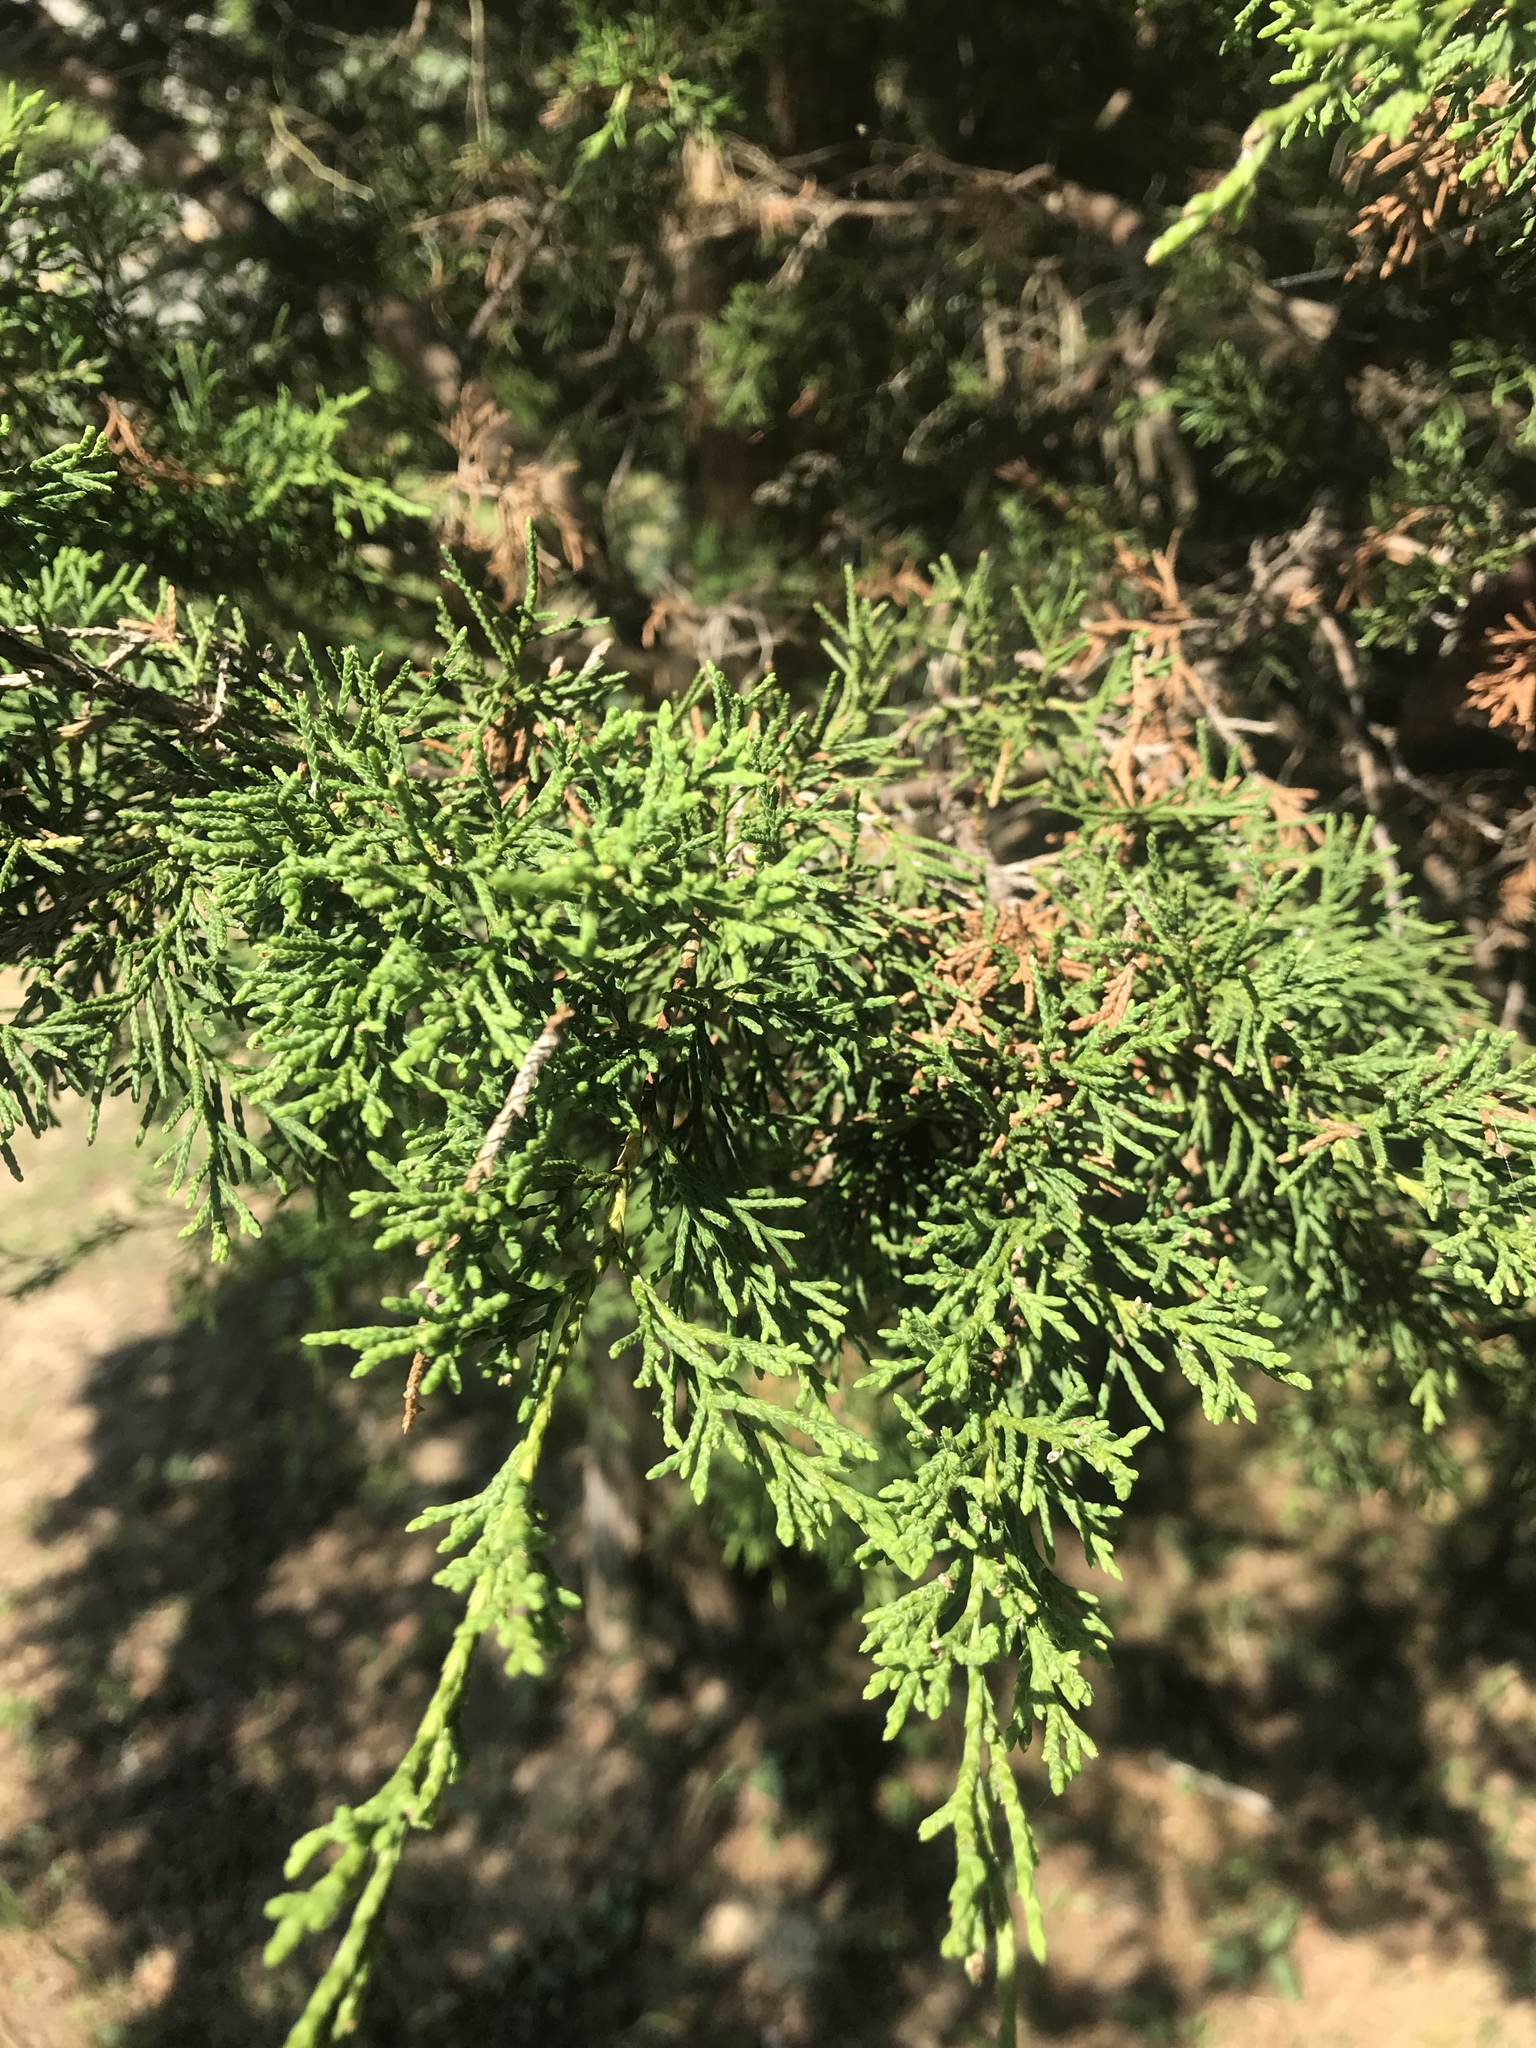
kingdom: Plantae
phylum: Tracheophyta
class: Pinopsida
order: Pinales
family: Cupressaceae
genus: Juniperus
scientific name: Juniperus virginiana
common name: Red juniper
